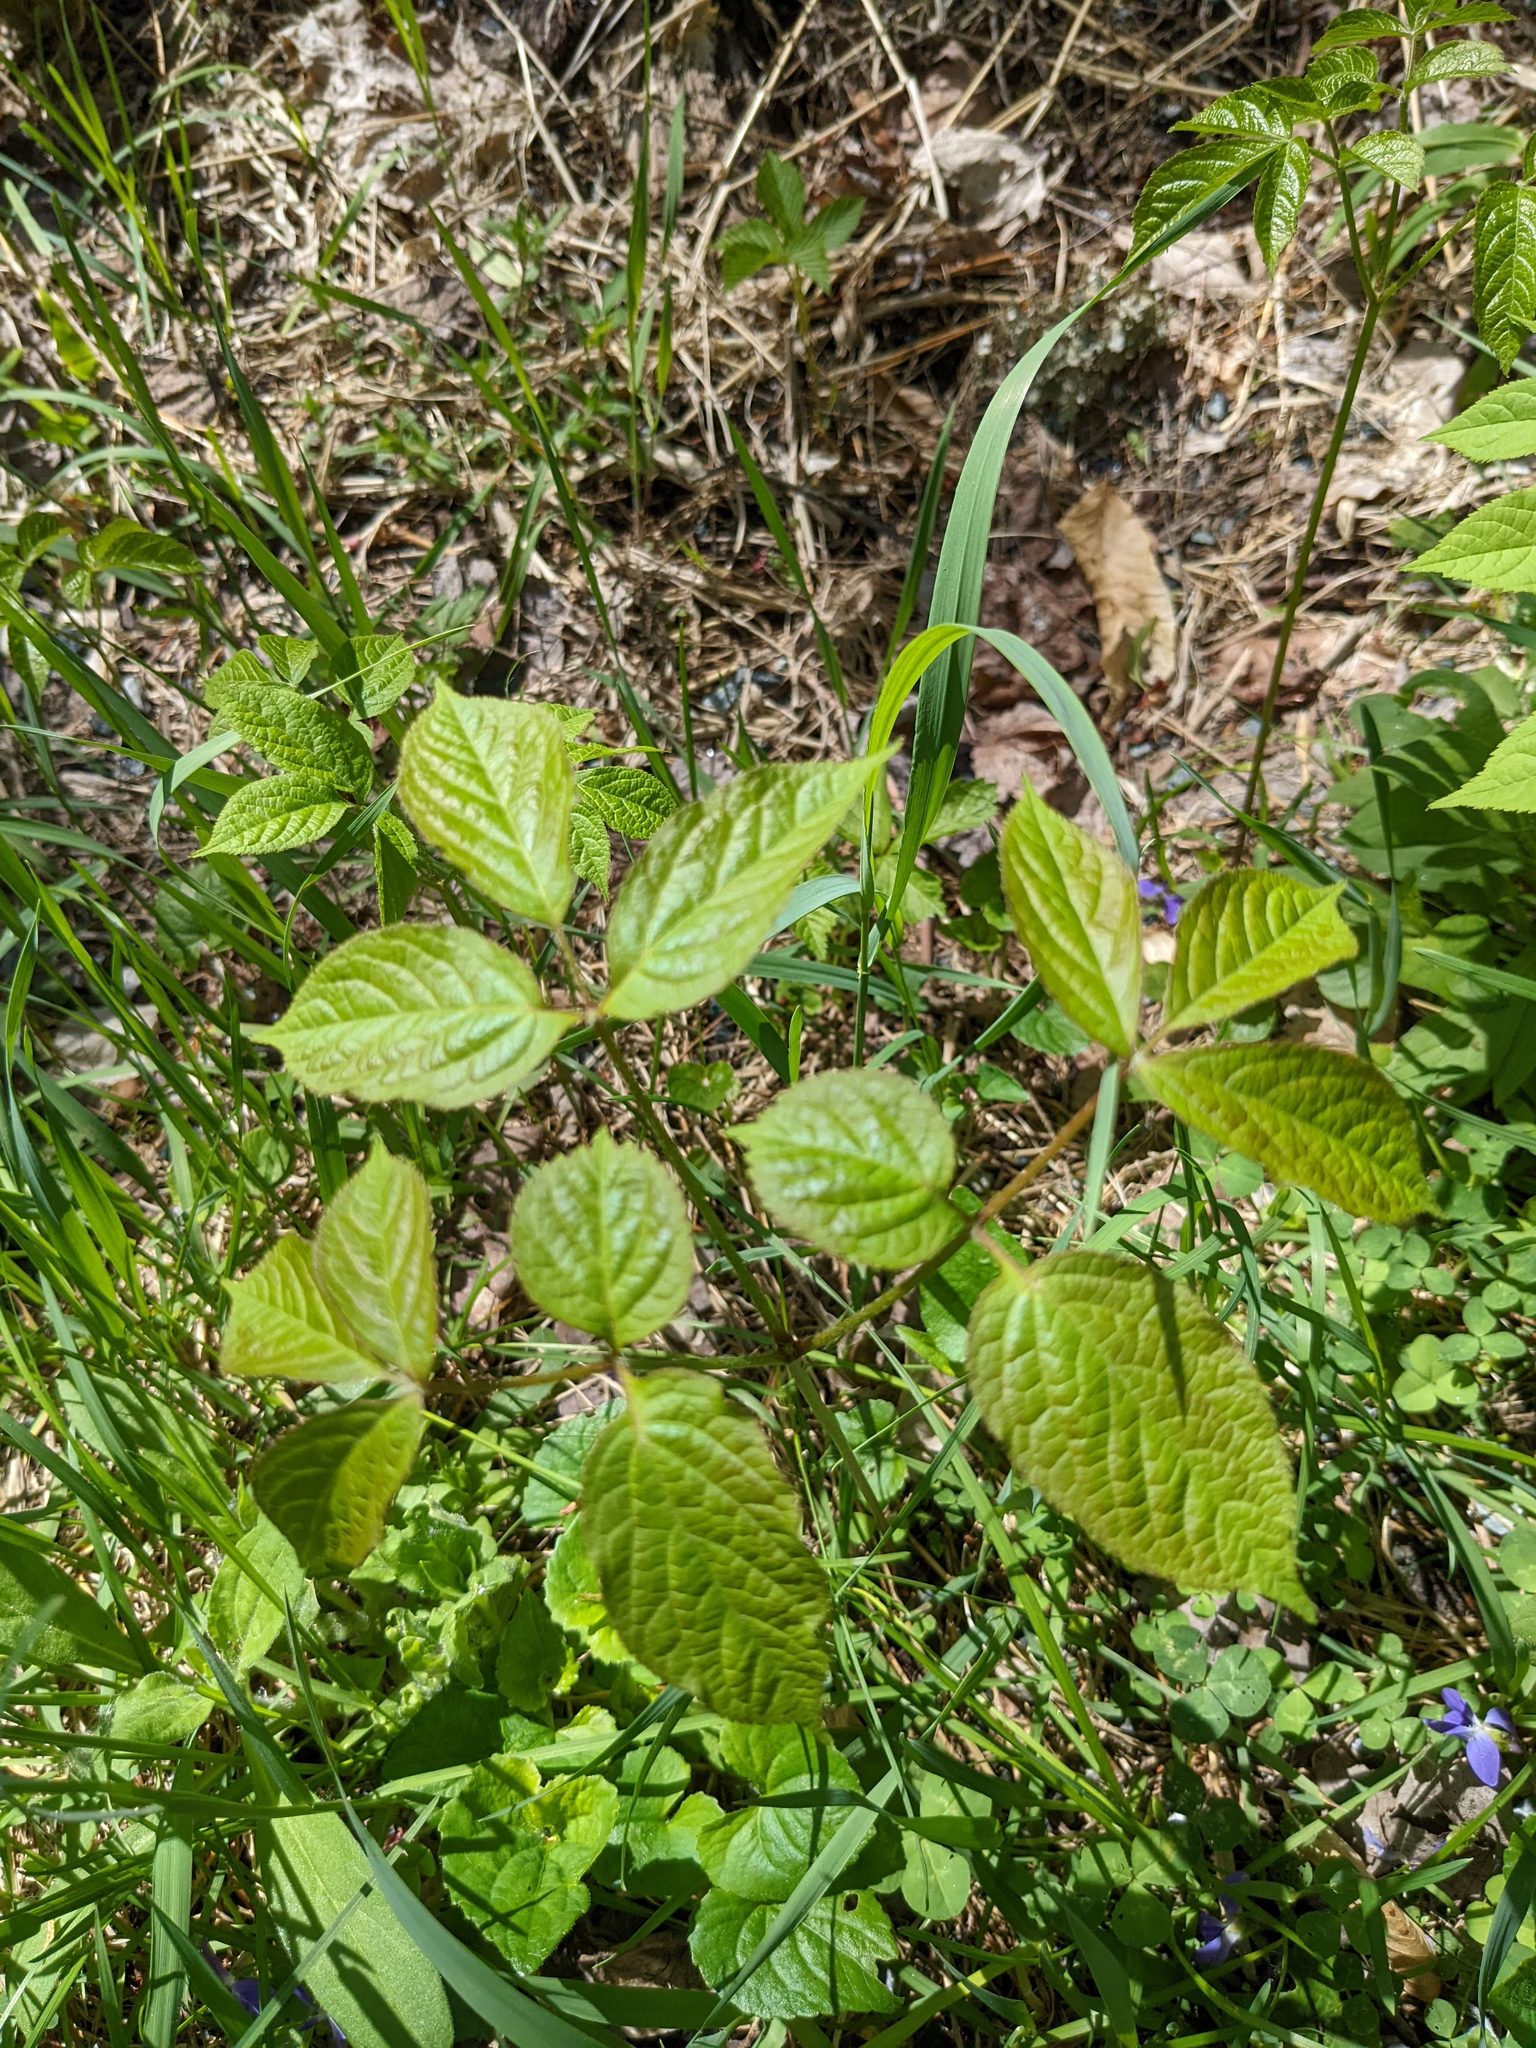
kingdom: Plantae
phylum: Tracheophyta
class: Magnoliopsida
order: Apiales
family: Araliaceae
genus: Aralia
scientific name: Aralia nudicaulis
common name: Wild sarsaparilla
